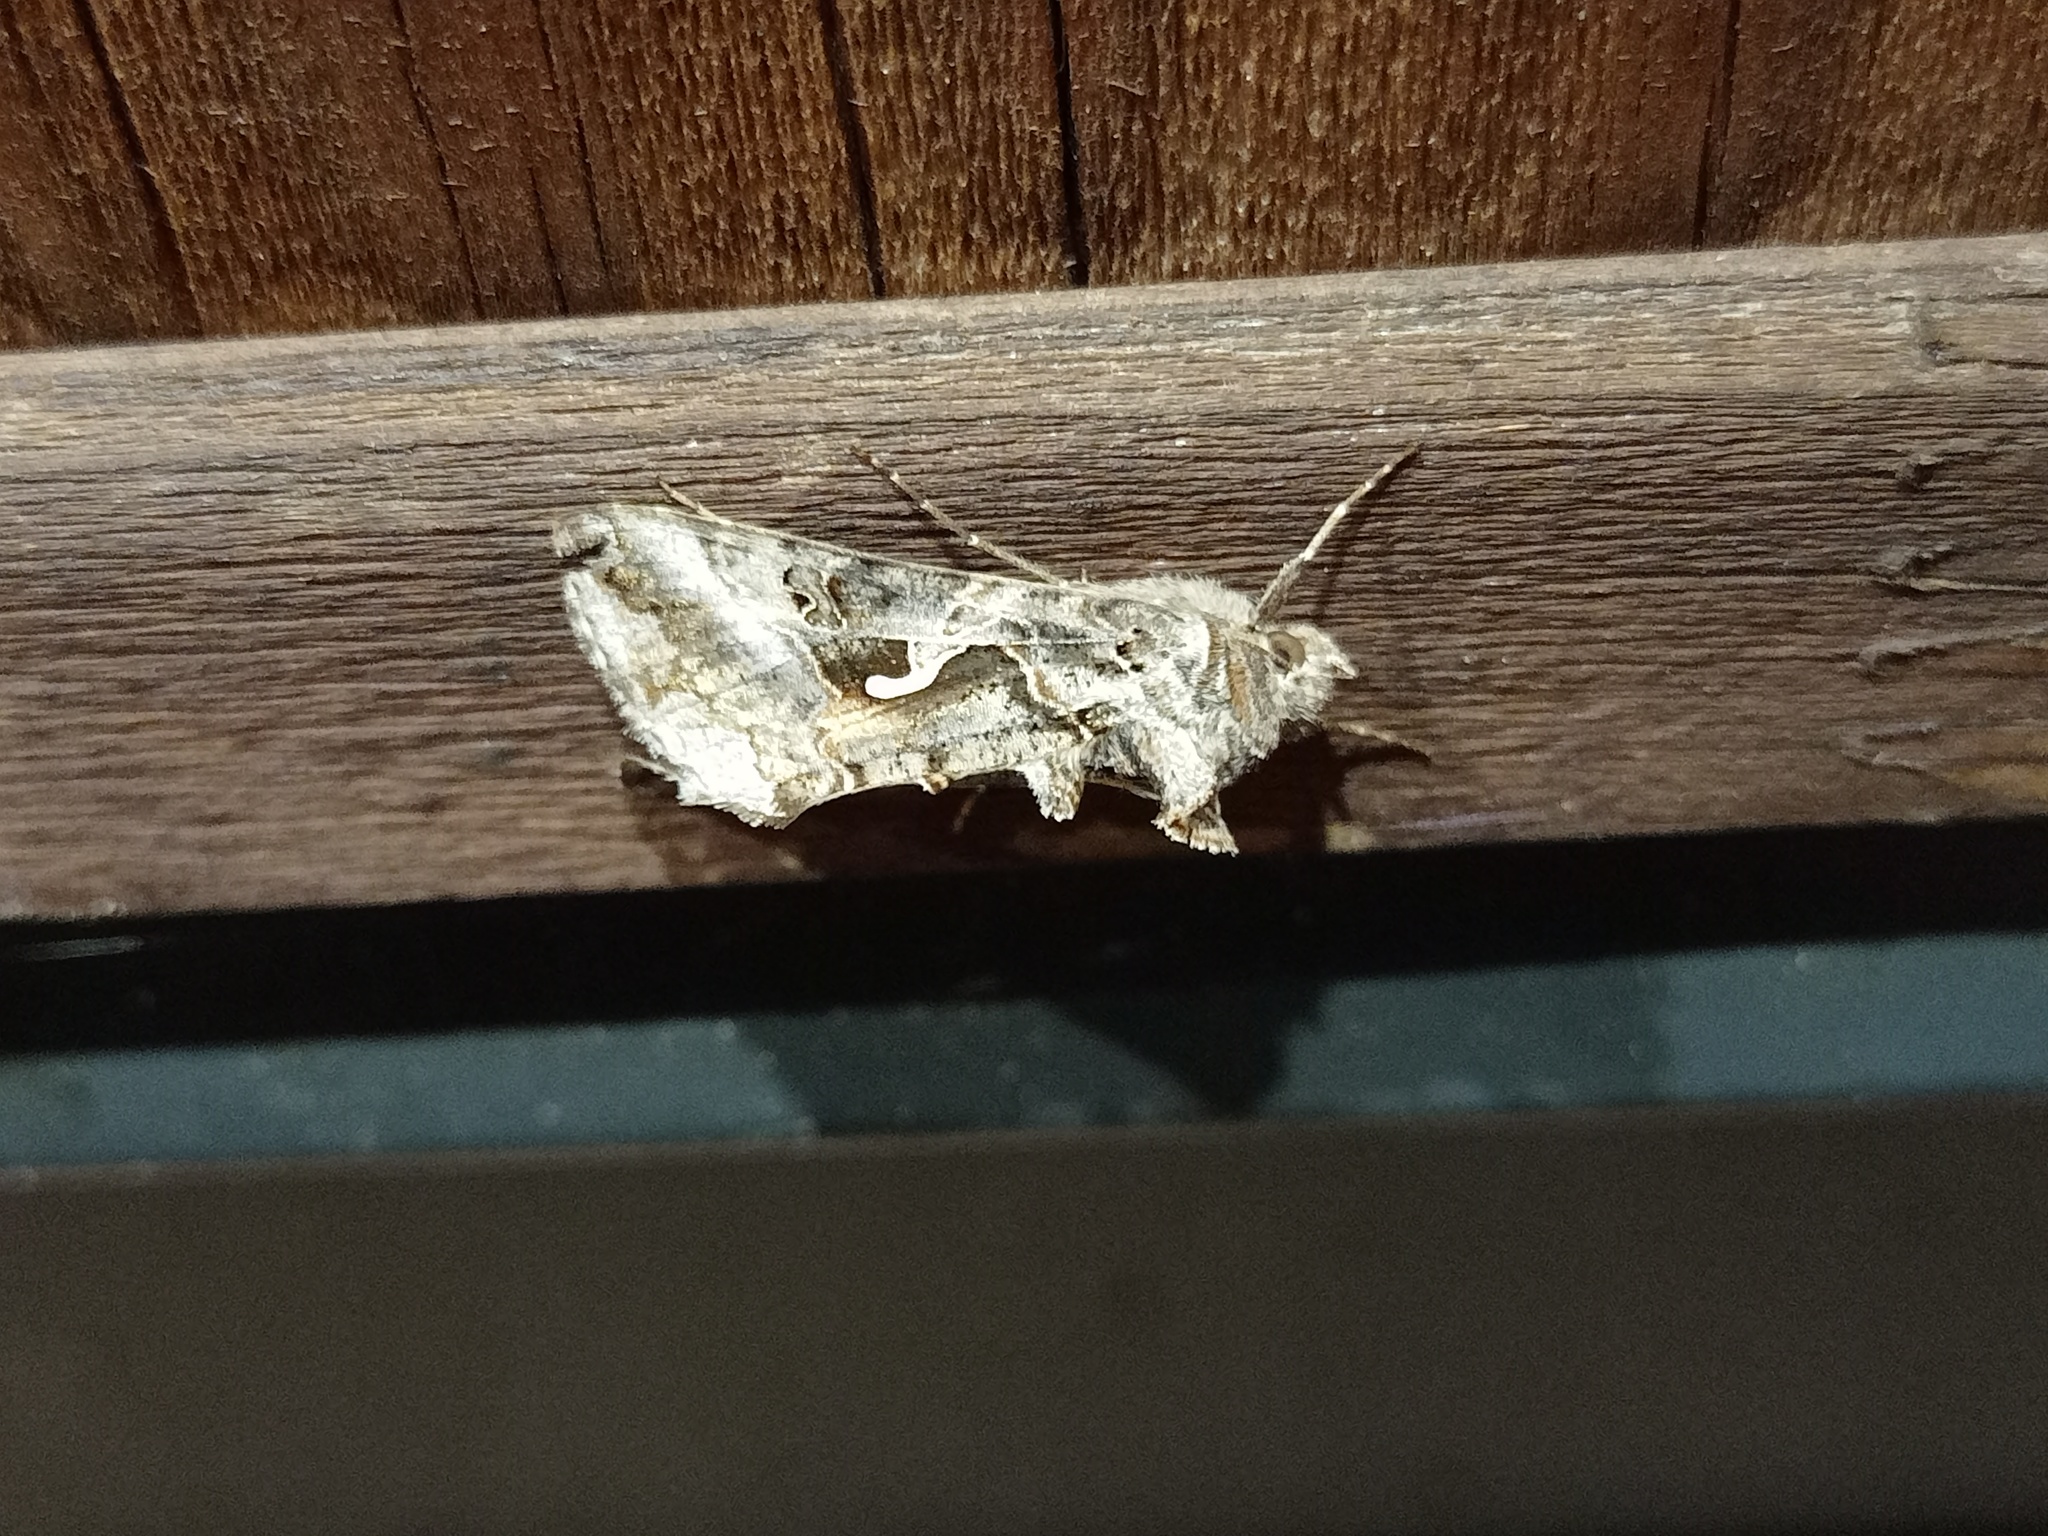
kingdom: Animalia
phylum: Arthropoda
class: Insecta
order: Lepidoptera
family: Noctuidae
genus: Autographa
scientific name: Autographa gamma
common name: Silver y
